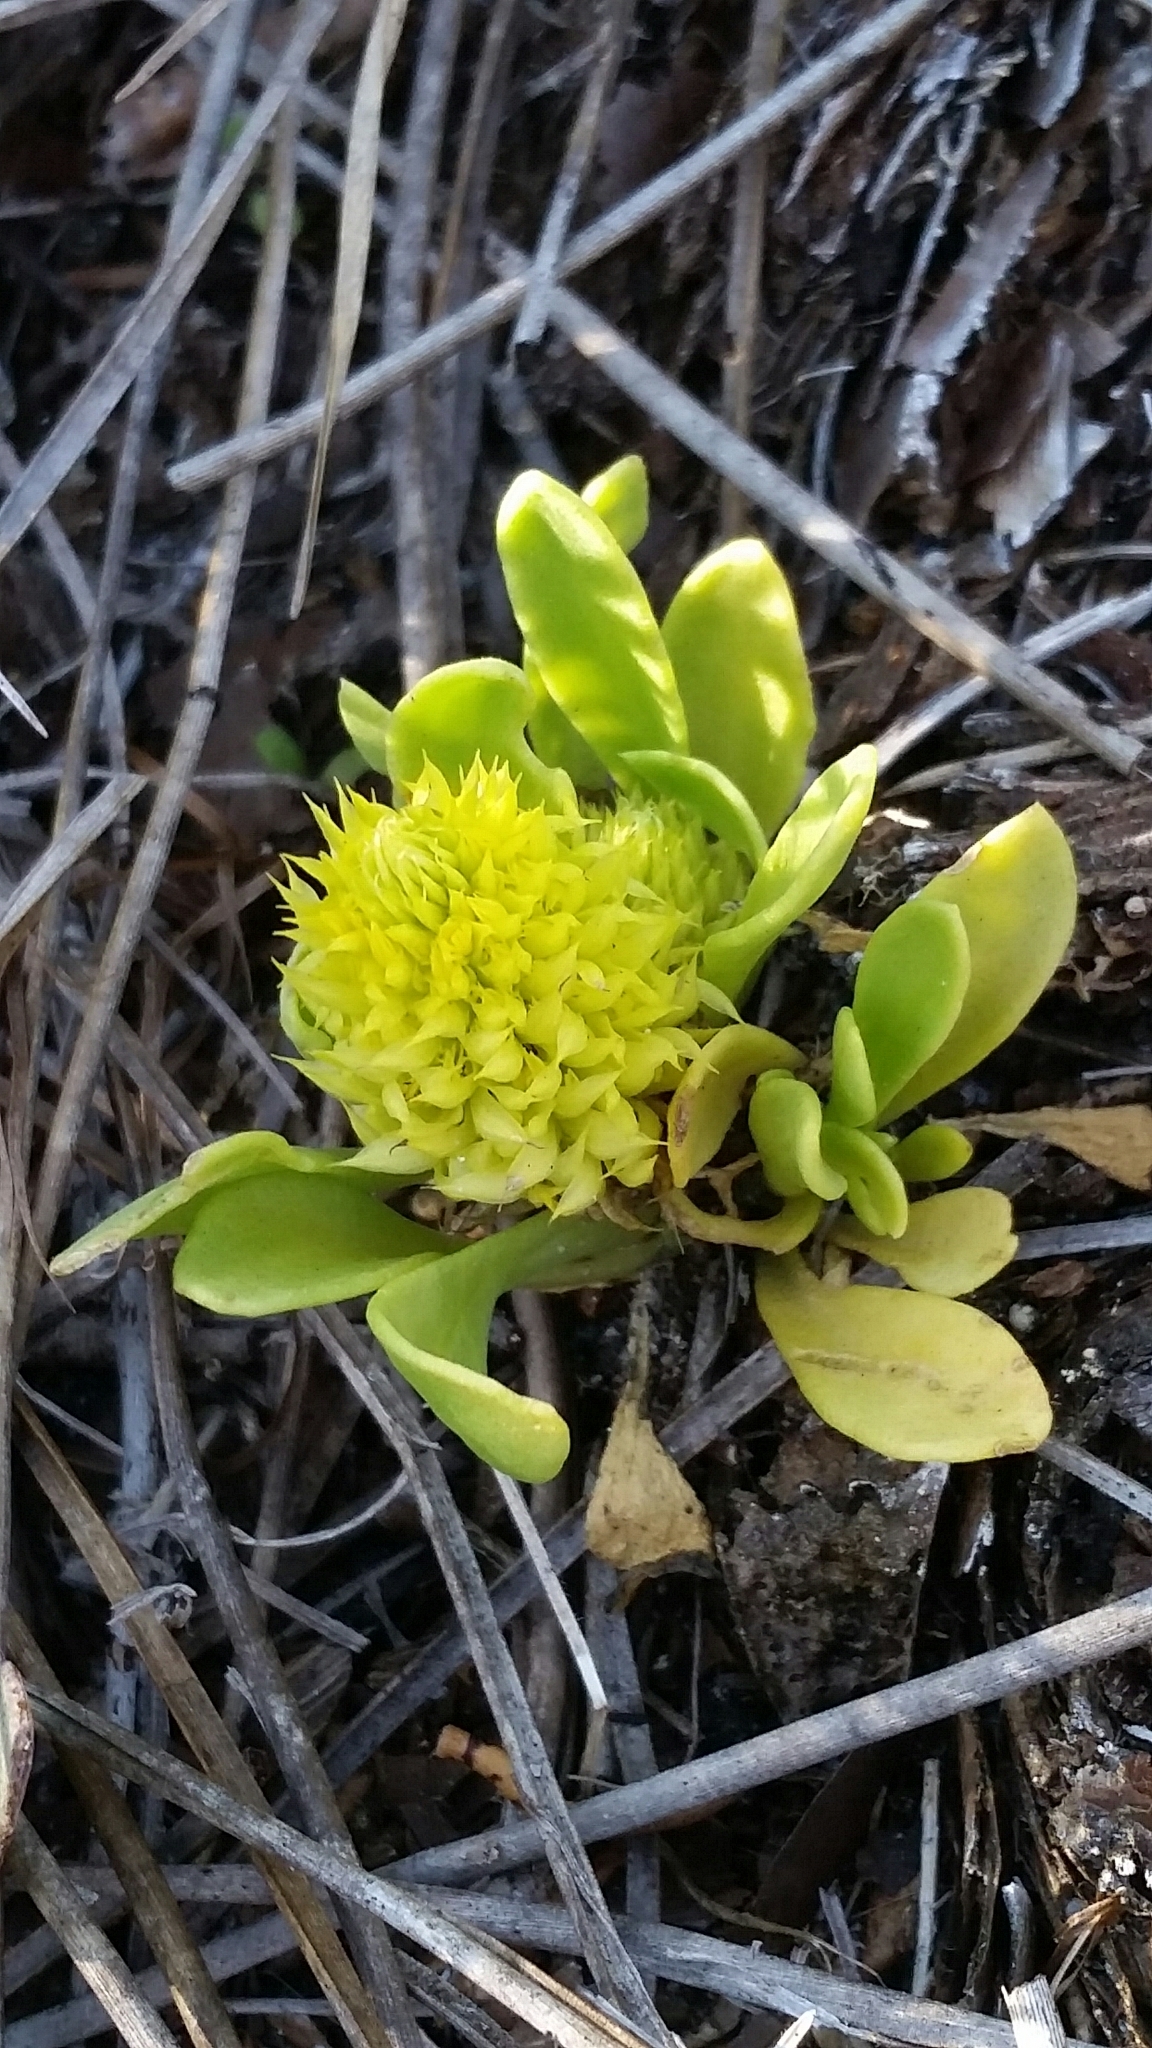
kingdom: Plantae
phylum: Tracheophyta
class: Magnoliopsida
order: Fabales
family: Polygalaceae
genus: Polygala
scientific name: Polygala nana
